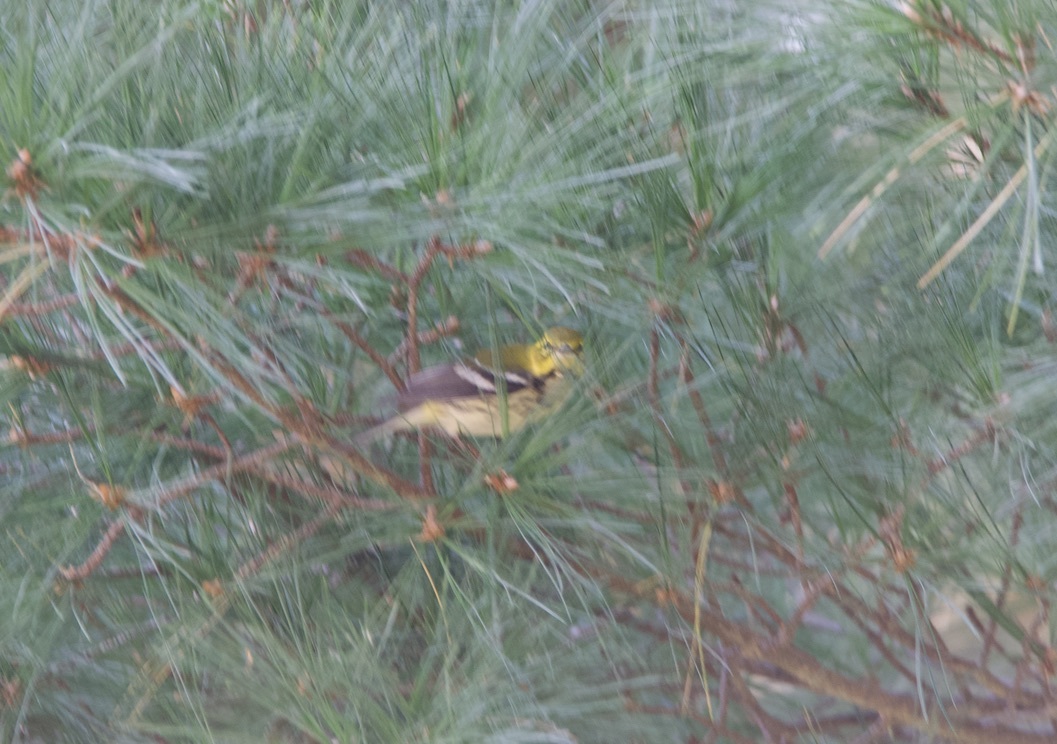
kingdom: Animalia
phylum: Chordata
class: Aves
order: Passeriformes
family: Parulidae
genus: Setophaga
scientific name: Setophaga virens
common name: Black-throated green warbler
